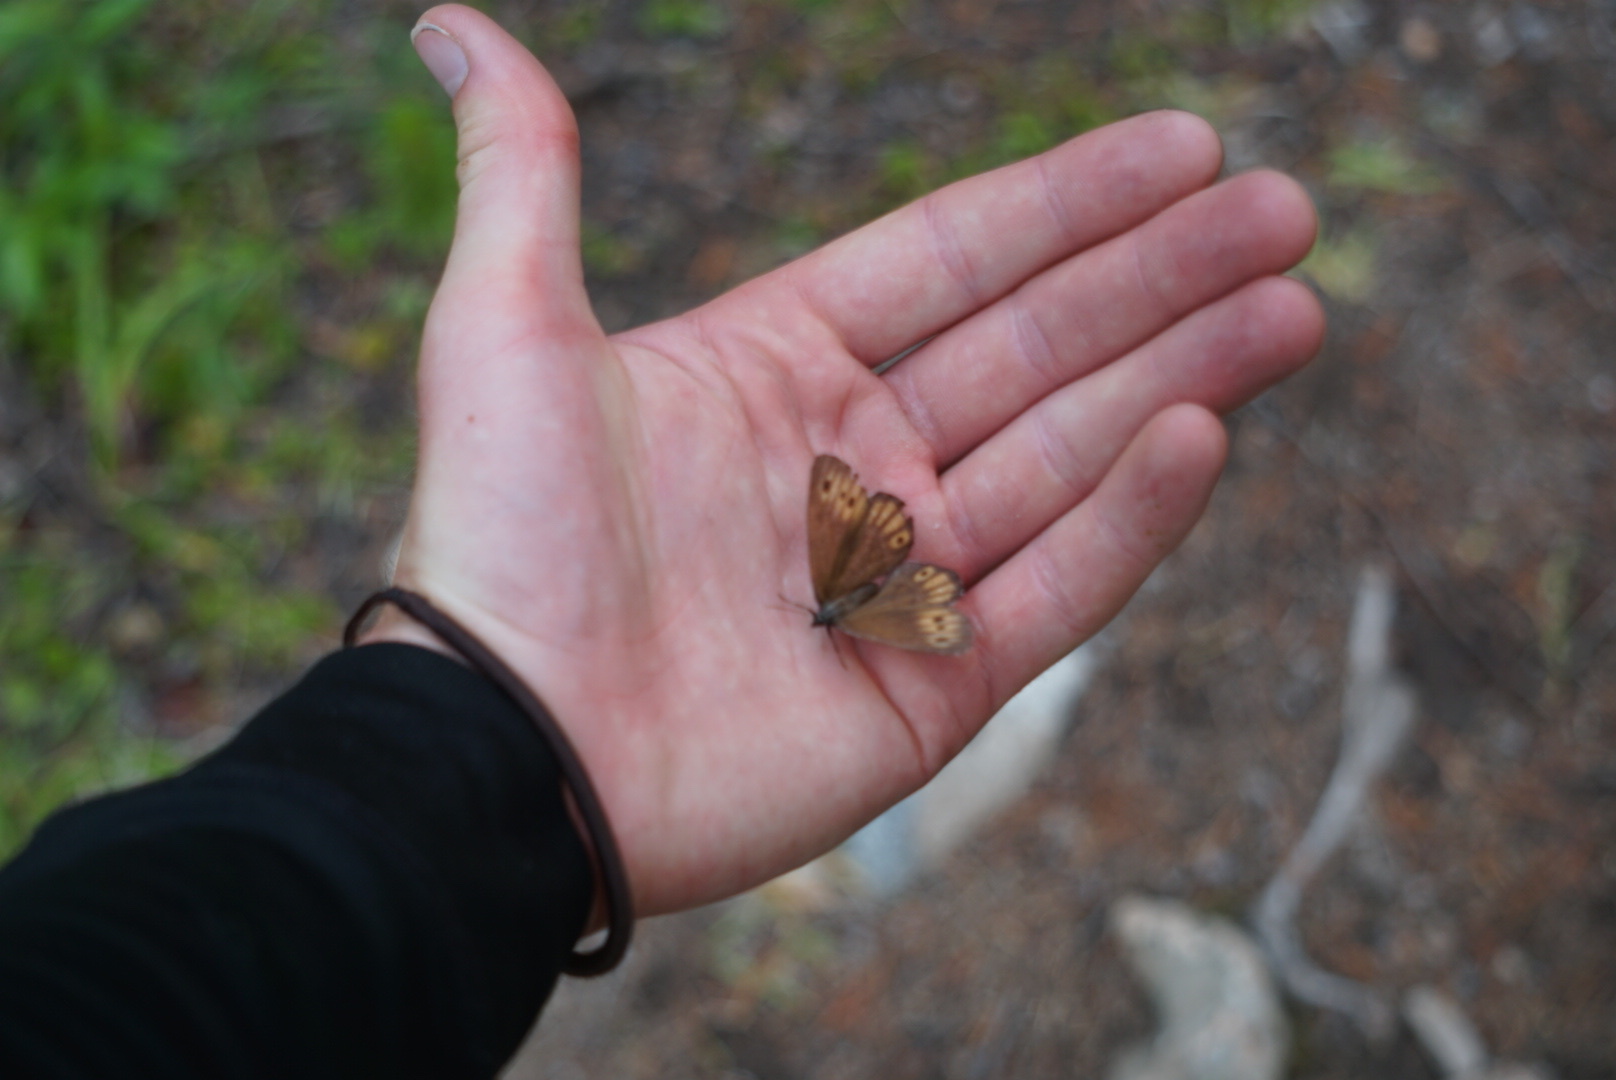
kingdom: Animalia
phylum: Arthropoda
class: Insecta
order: Lepidoptera
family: Nymphalidae
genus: Oeneis
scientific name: Oeneis jutta
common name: Baltic grayling
